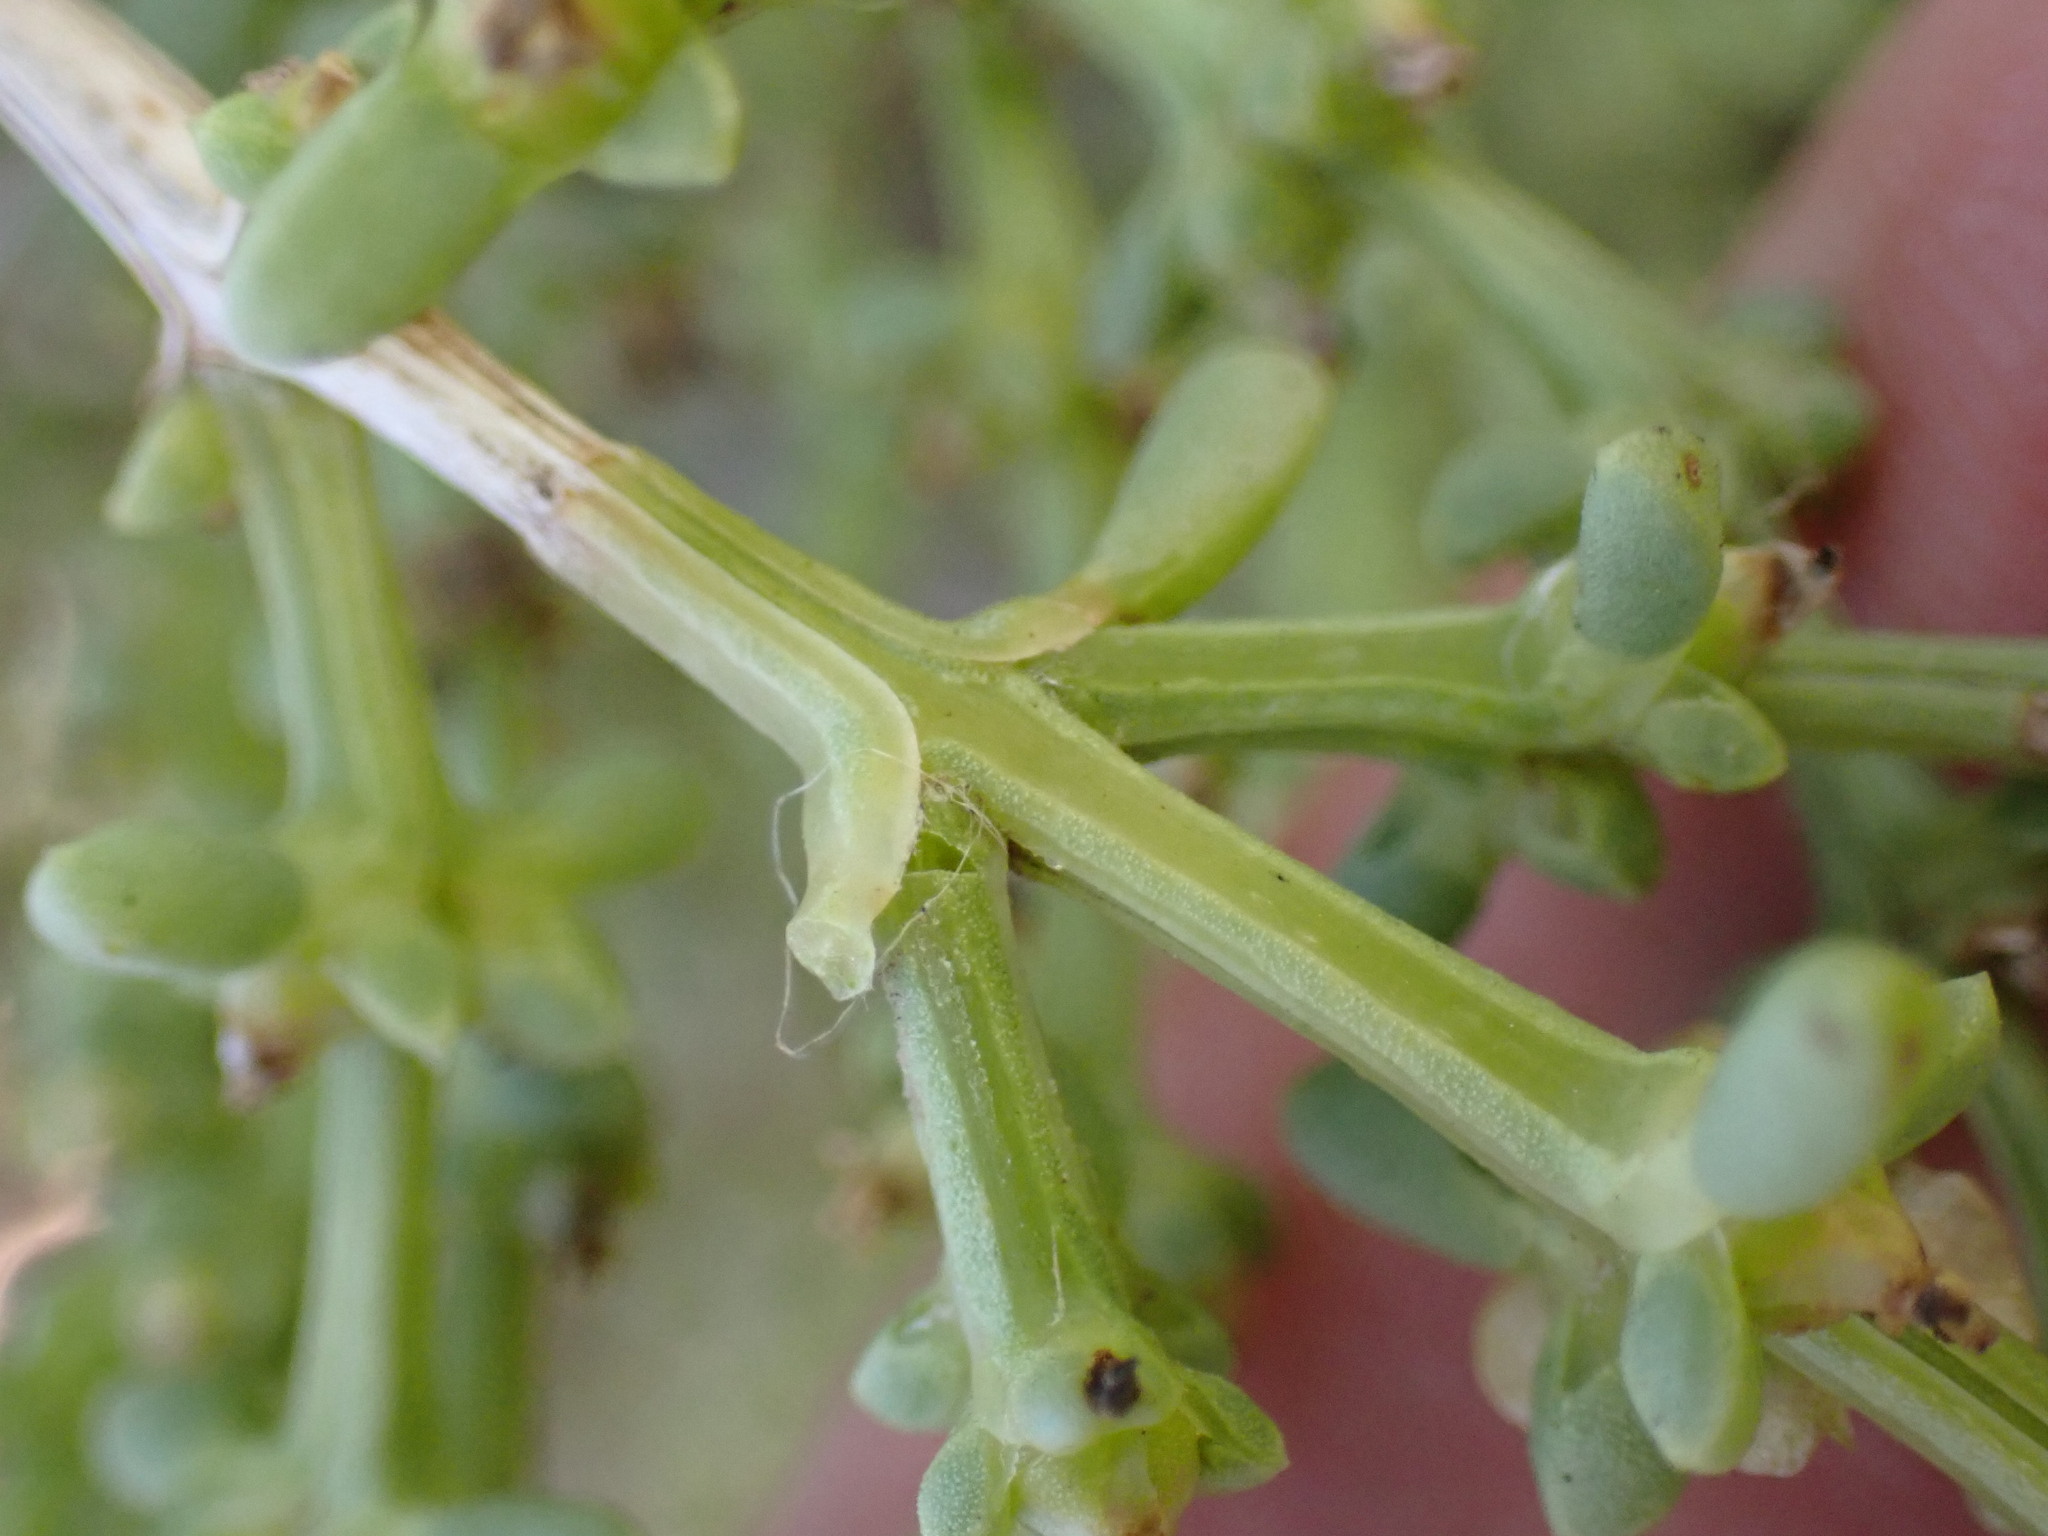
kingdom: Plantae
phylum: Tracheophyta
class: Magnoliopsida
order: Caryophyllales
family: Amaranthaceae
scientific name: Amaranthaceae
